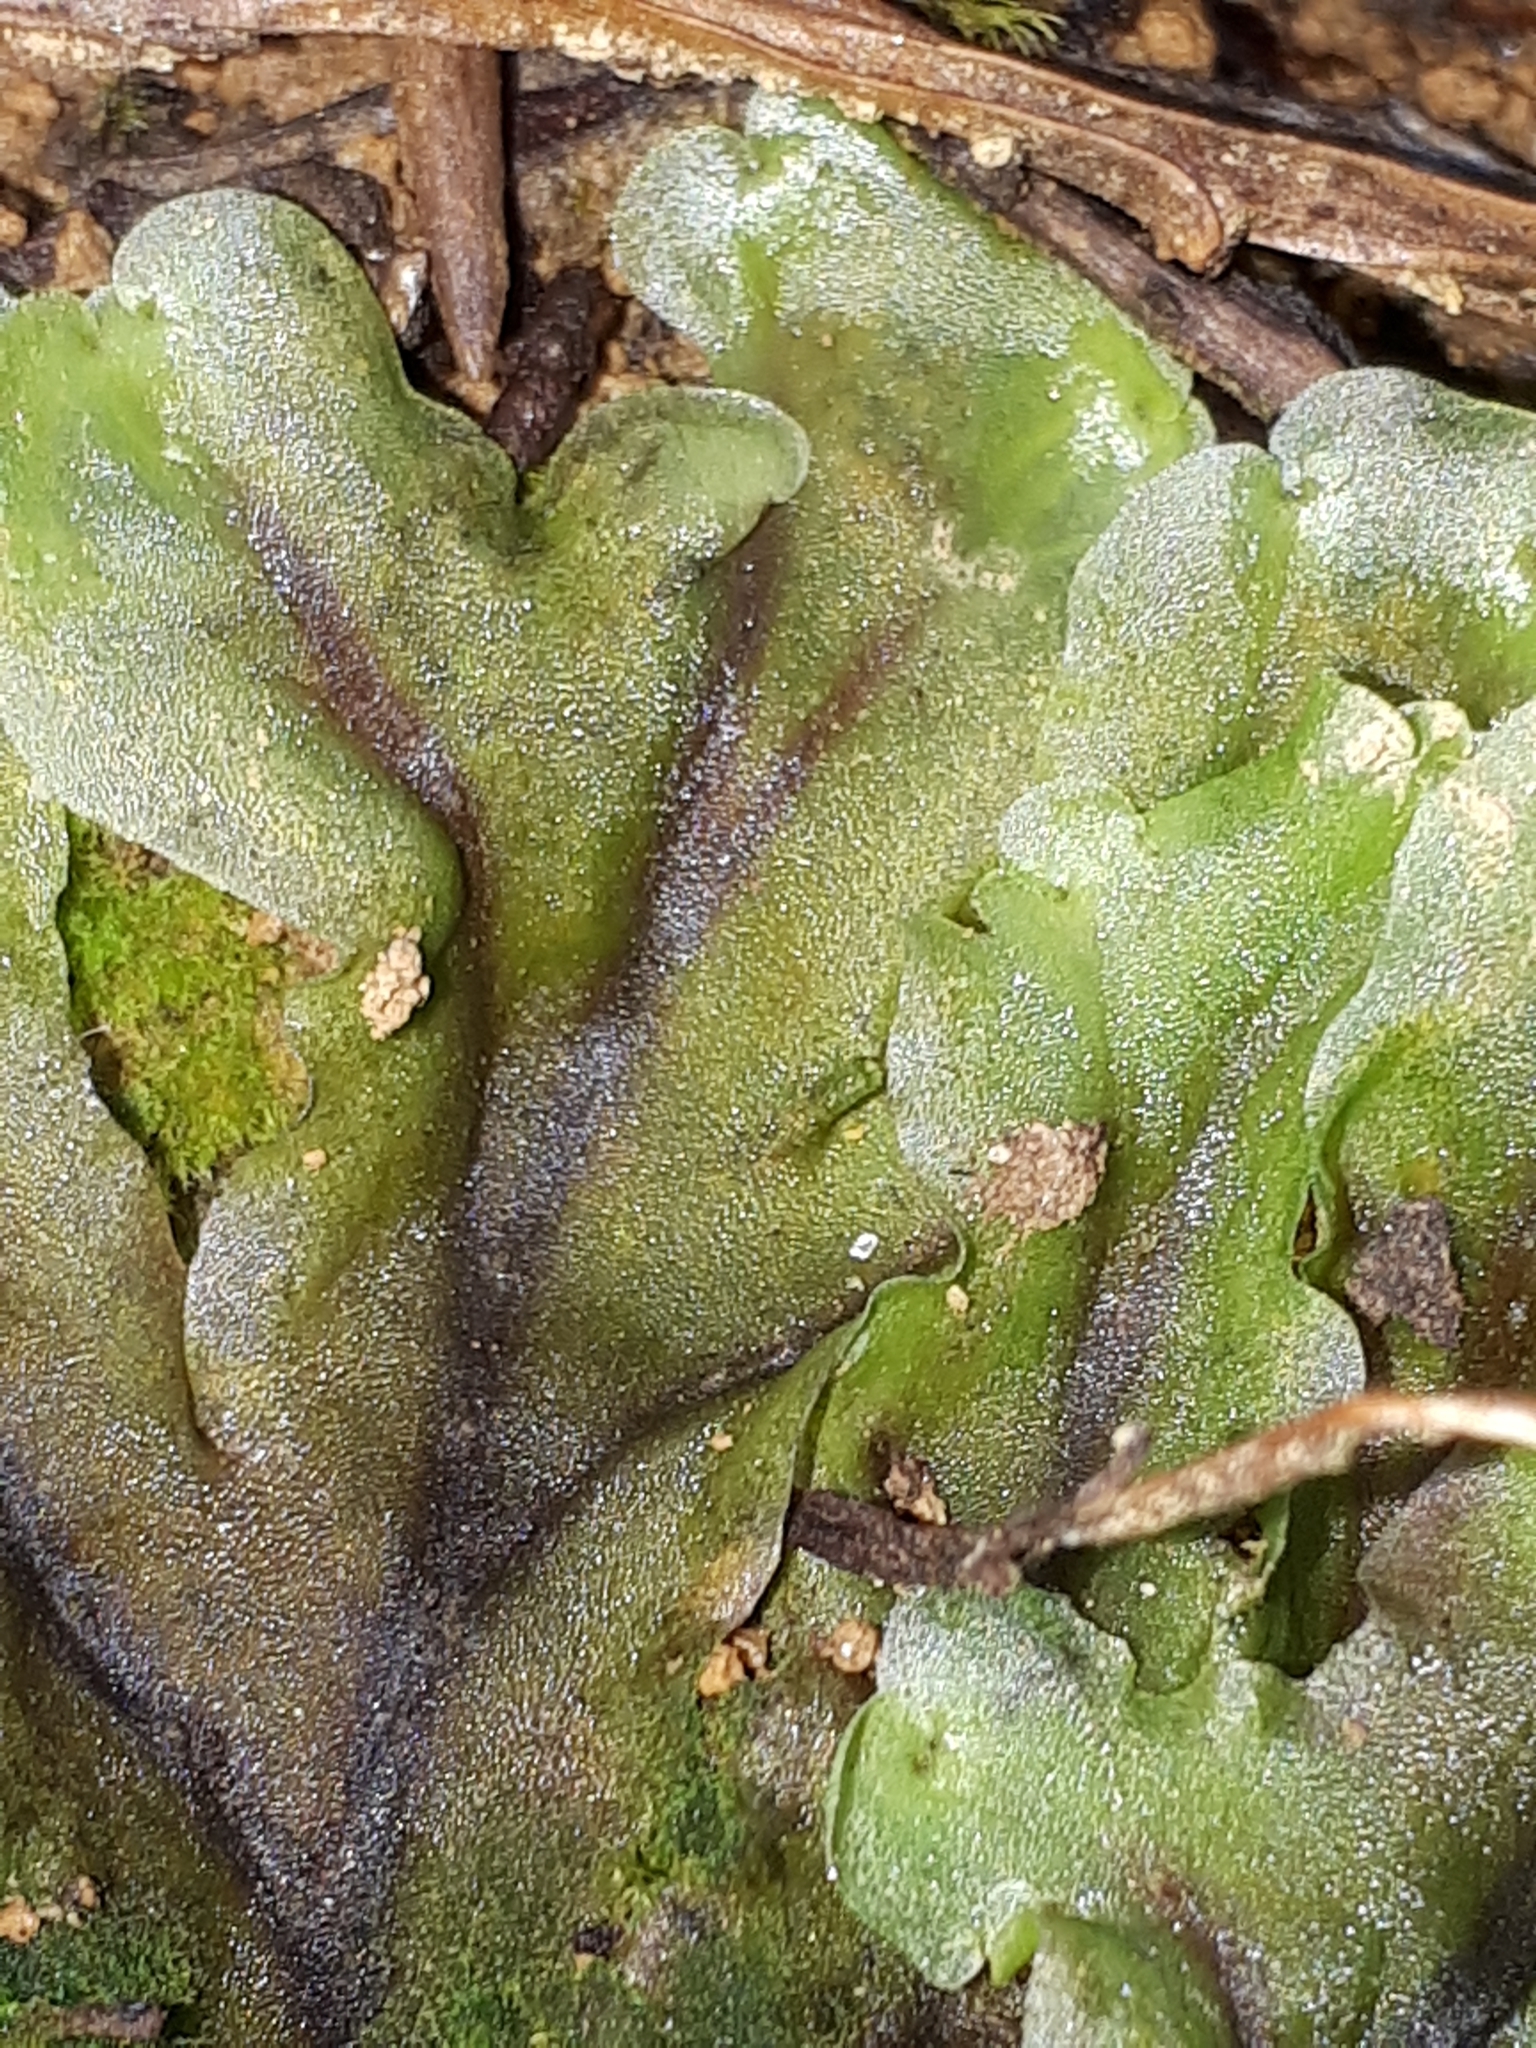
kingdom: Plantae
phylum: Marchantiophyta
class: Jungermanniopsida
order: Pelliales
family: Pelliaceae
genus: Pellia
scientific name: Pellia epiphylla
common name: Common pellia
